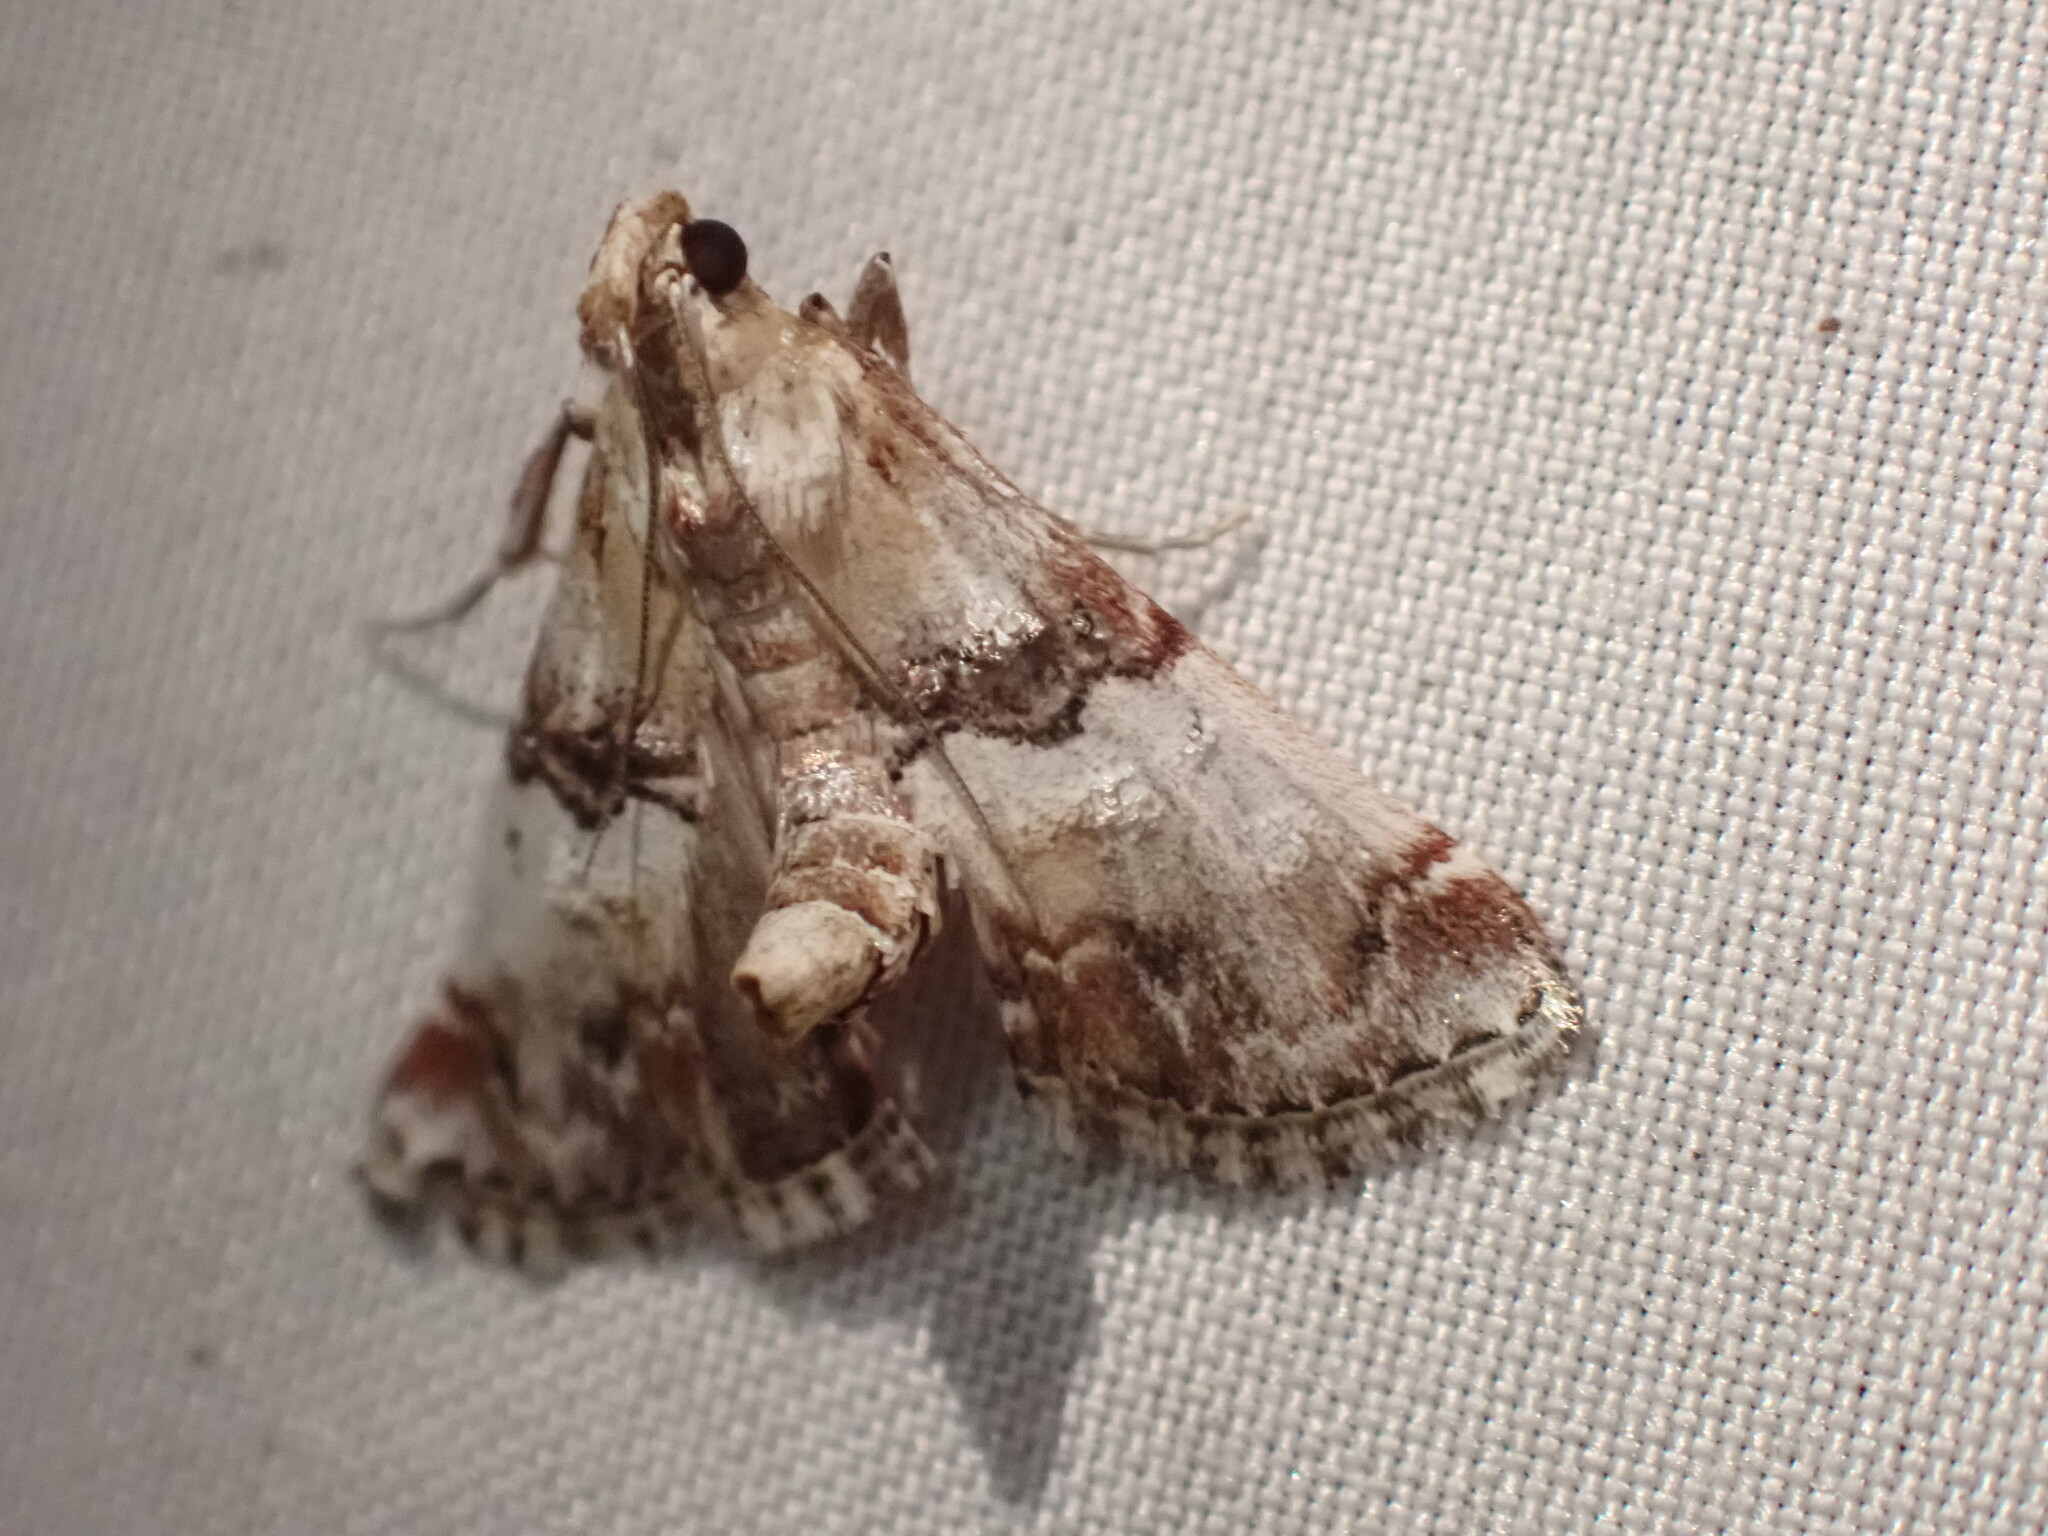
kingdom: Animalia
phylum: Arthropoda
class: Insecta
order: Lepidoptera
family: Pyralidae
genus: Toripalpus
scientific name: Toripalpus trabalis
